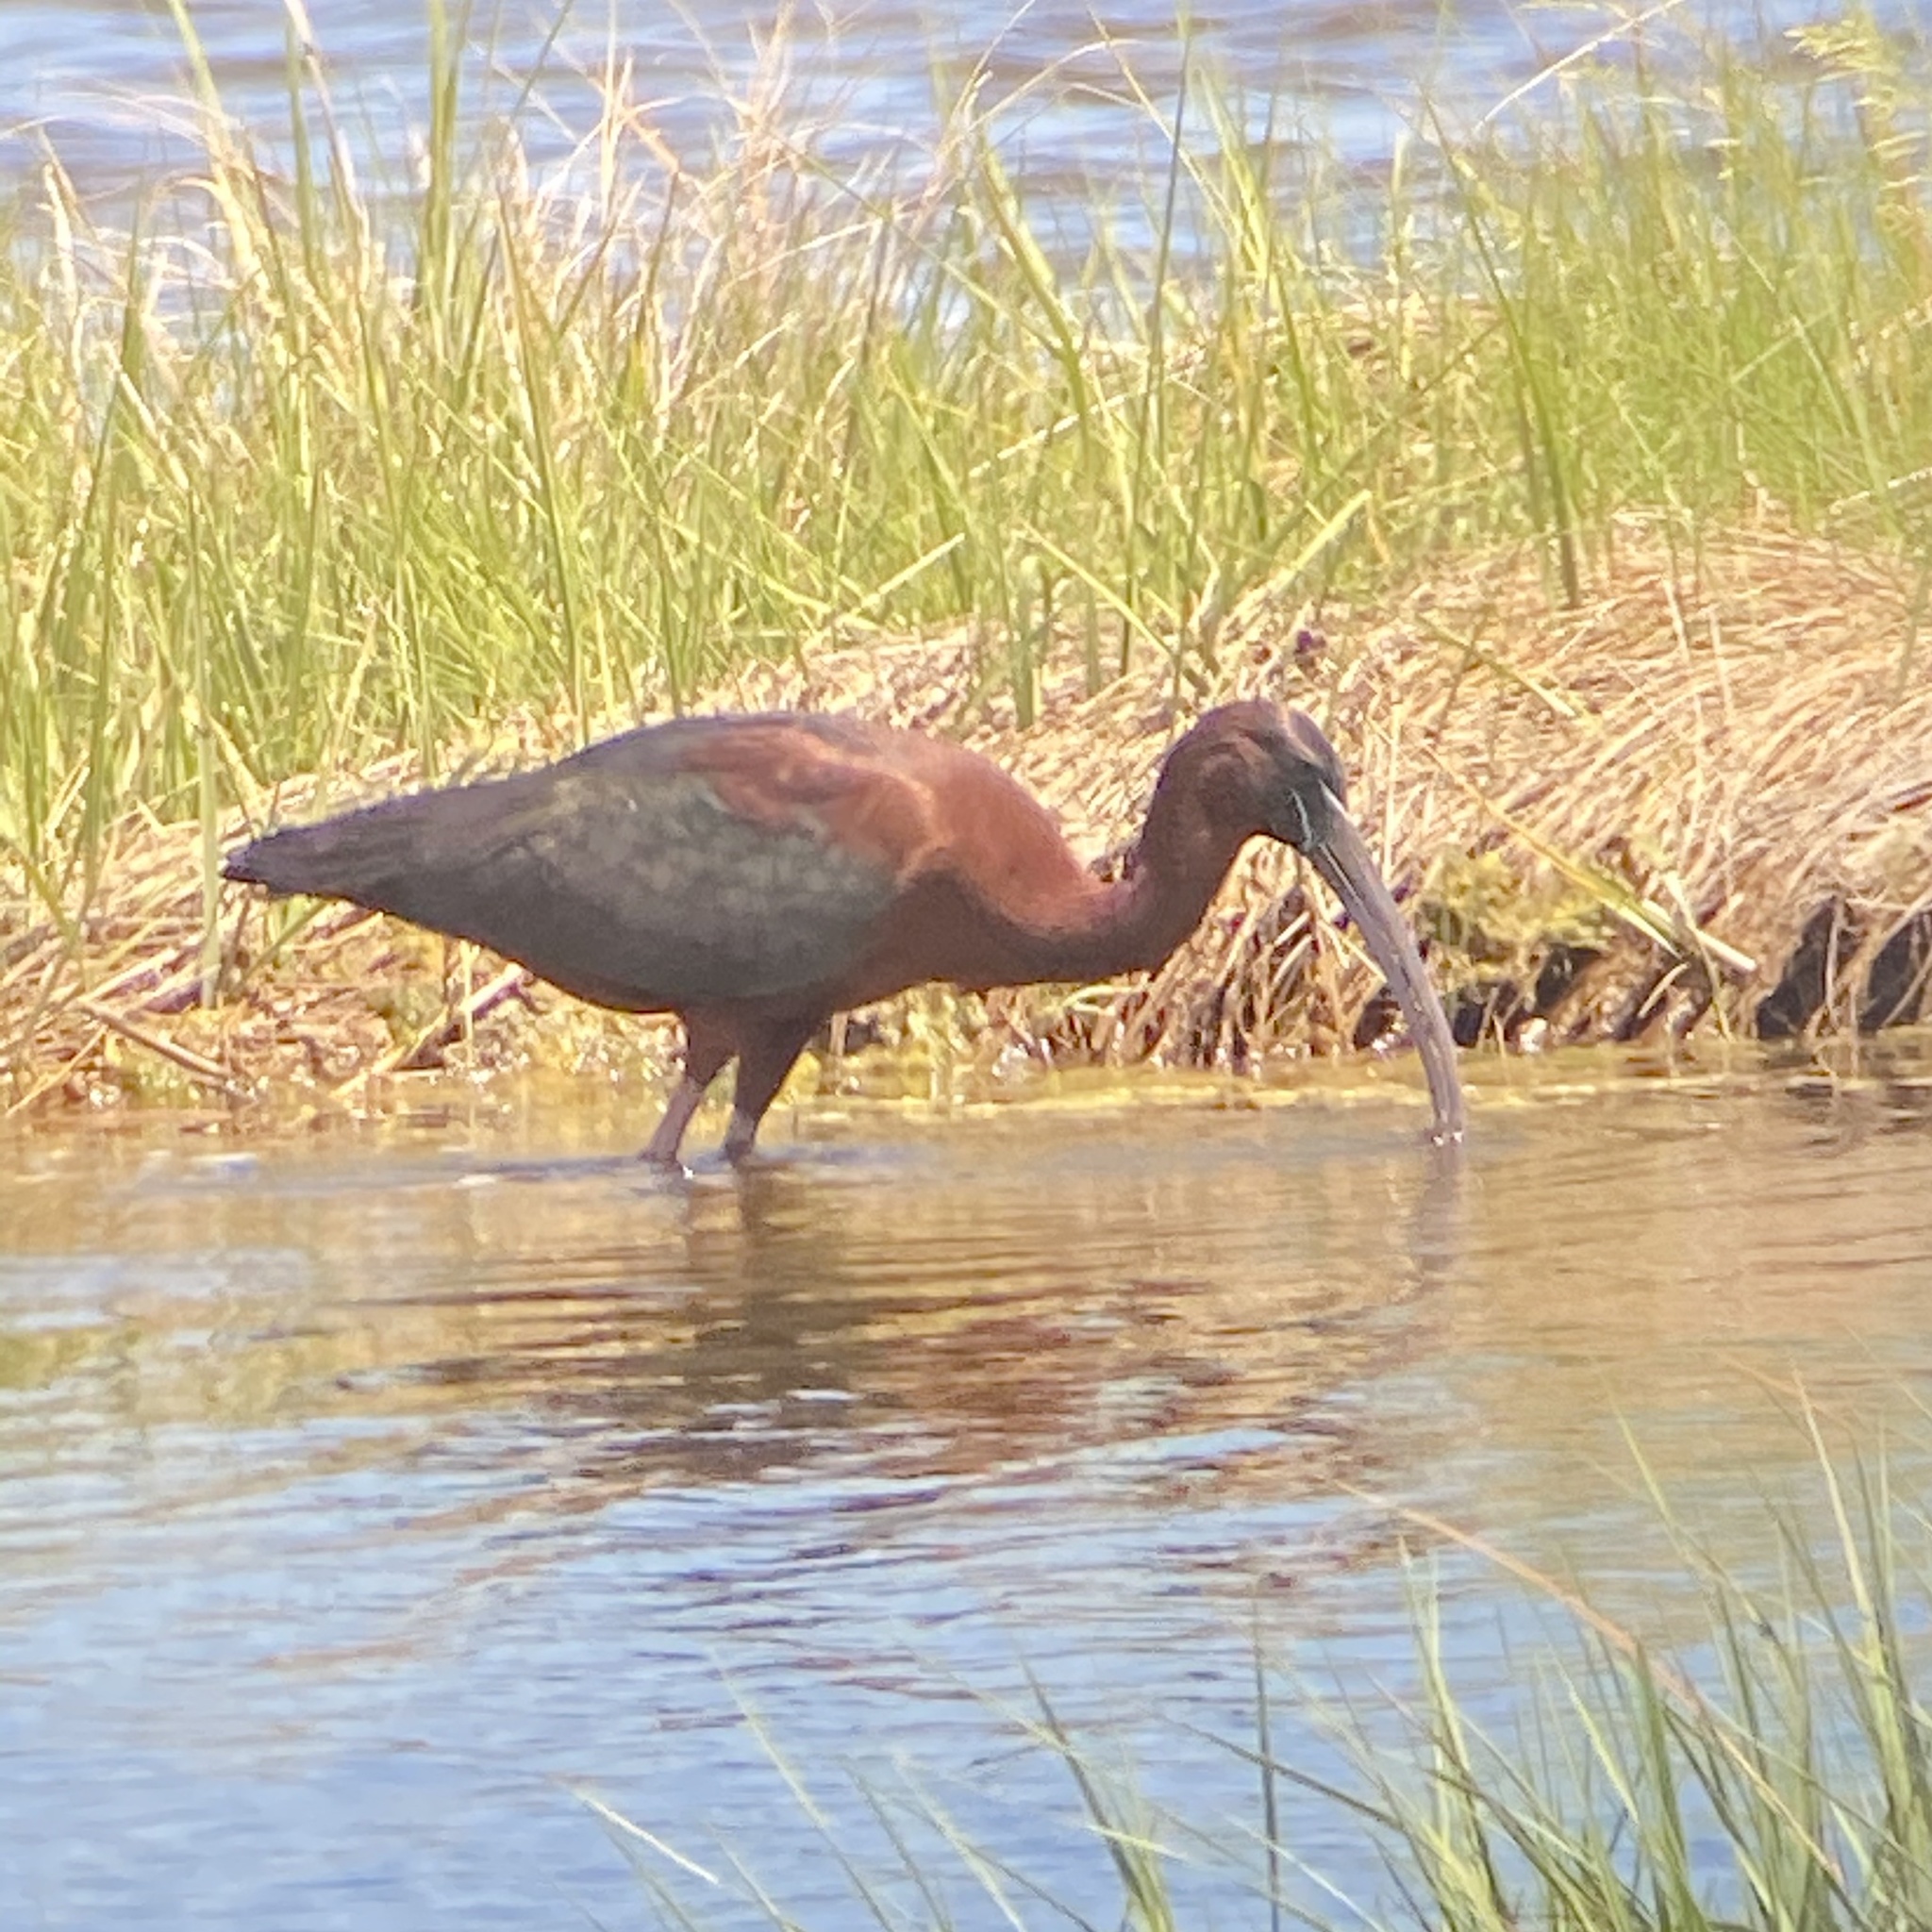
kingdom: Animalia
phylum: Chordata
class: Aves
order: Pelecaniformes
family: Threskiornithidae
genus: Plegadis
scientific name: Plegadis falcinellus
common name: Glossy ibis
